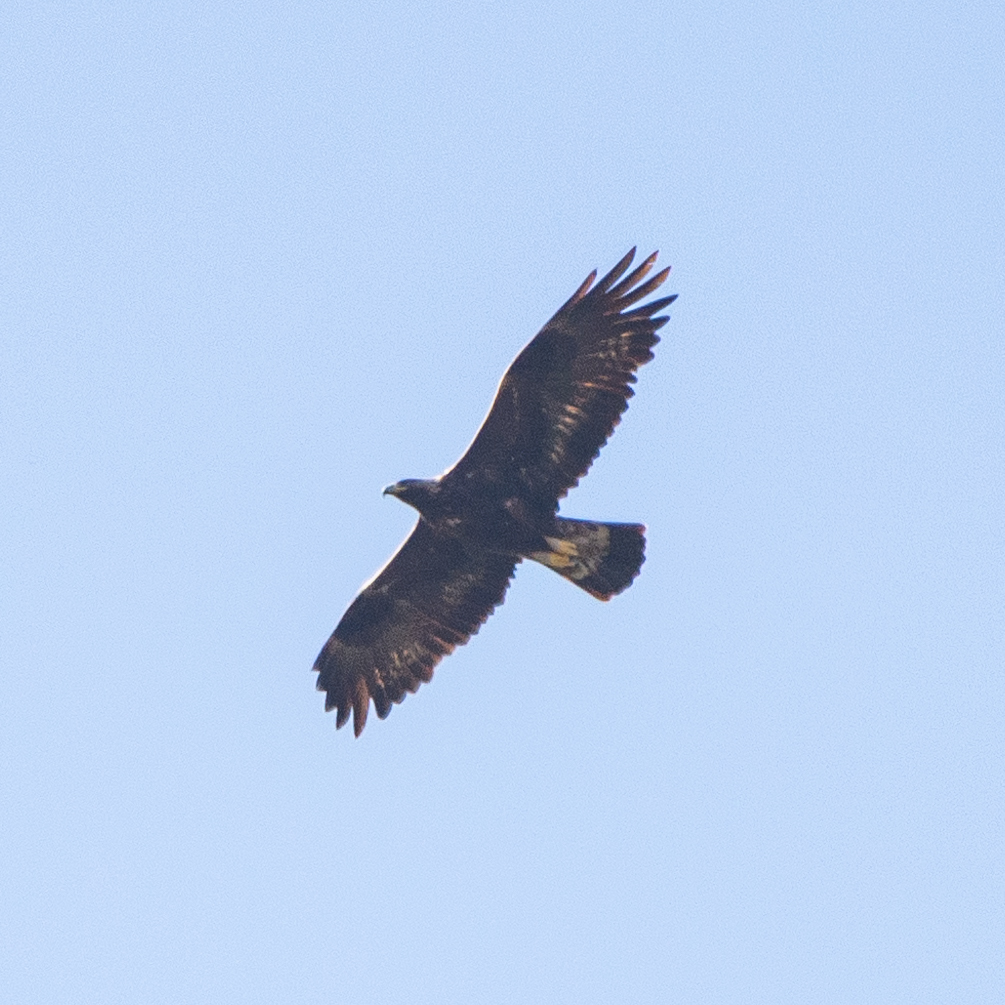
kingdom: Animalia
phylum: Chordata
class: Aves
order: Accipitriformes
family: Accipitridae
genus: Aquila
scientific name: Aquila chrysaetos
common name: Golden eagle
